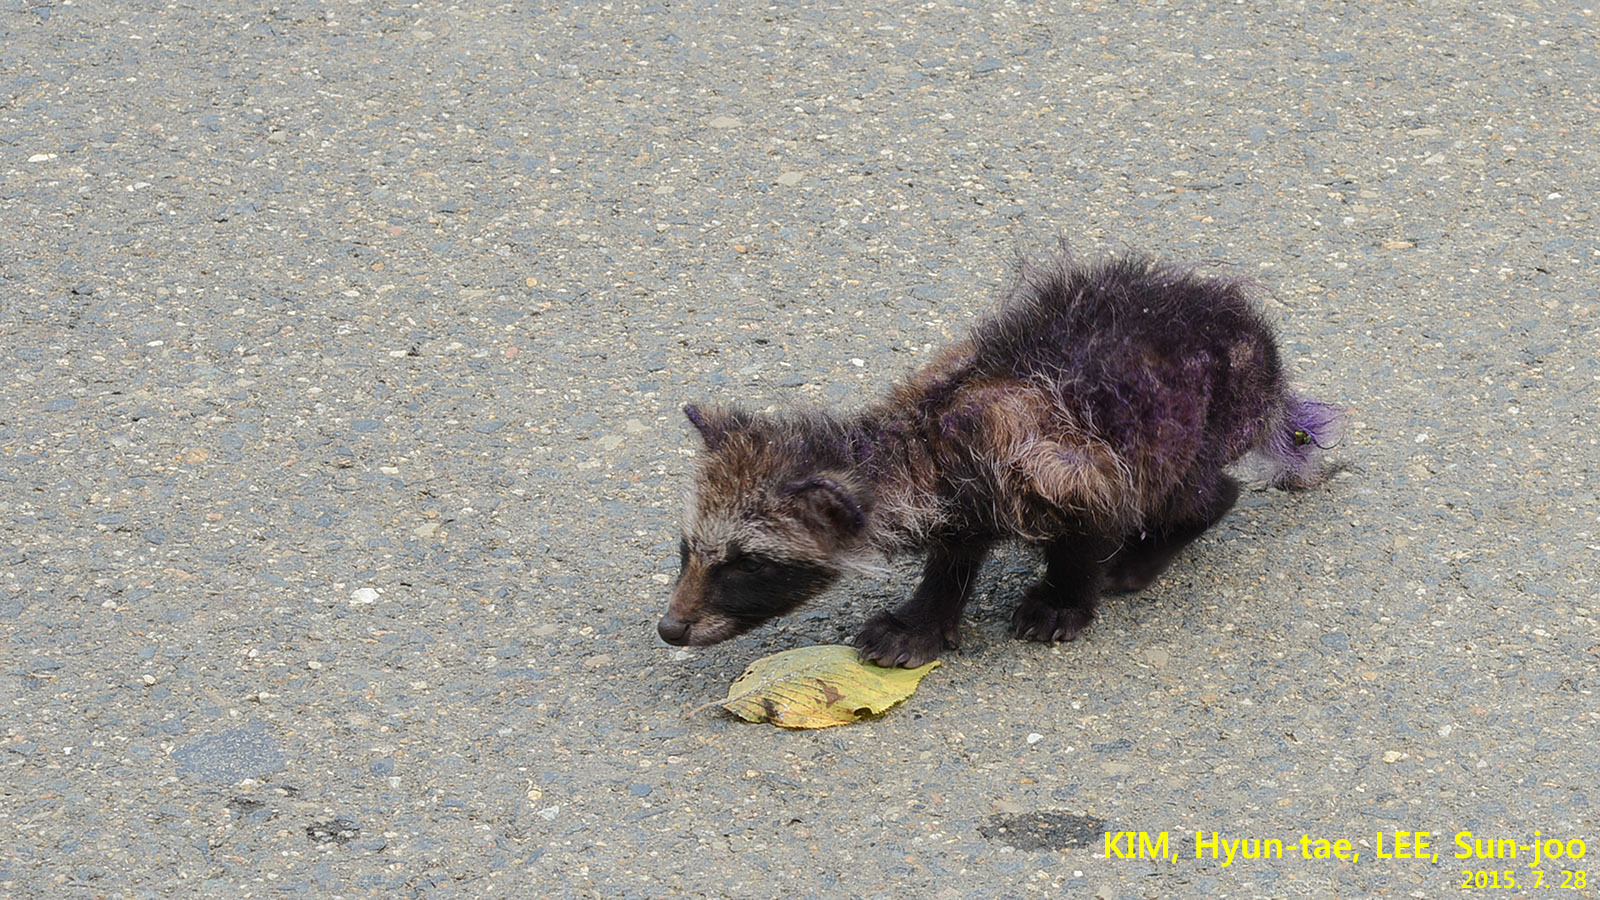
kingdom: Animalia
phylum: Chordata
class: Mammalia
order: Carnivora
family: Canidae
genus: Nyctereutes
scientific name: Nyctereutes procyonoides
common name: Raccoon dog
